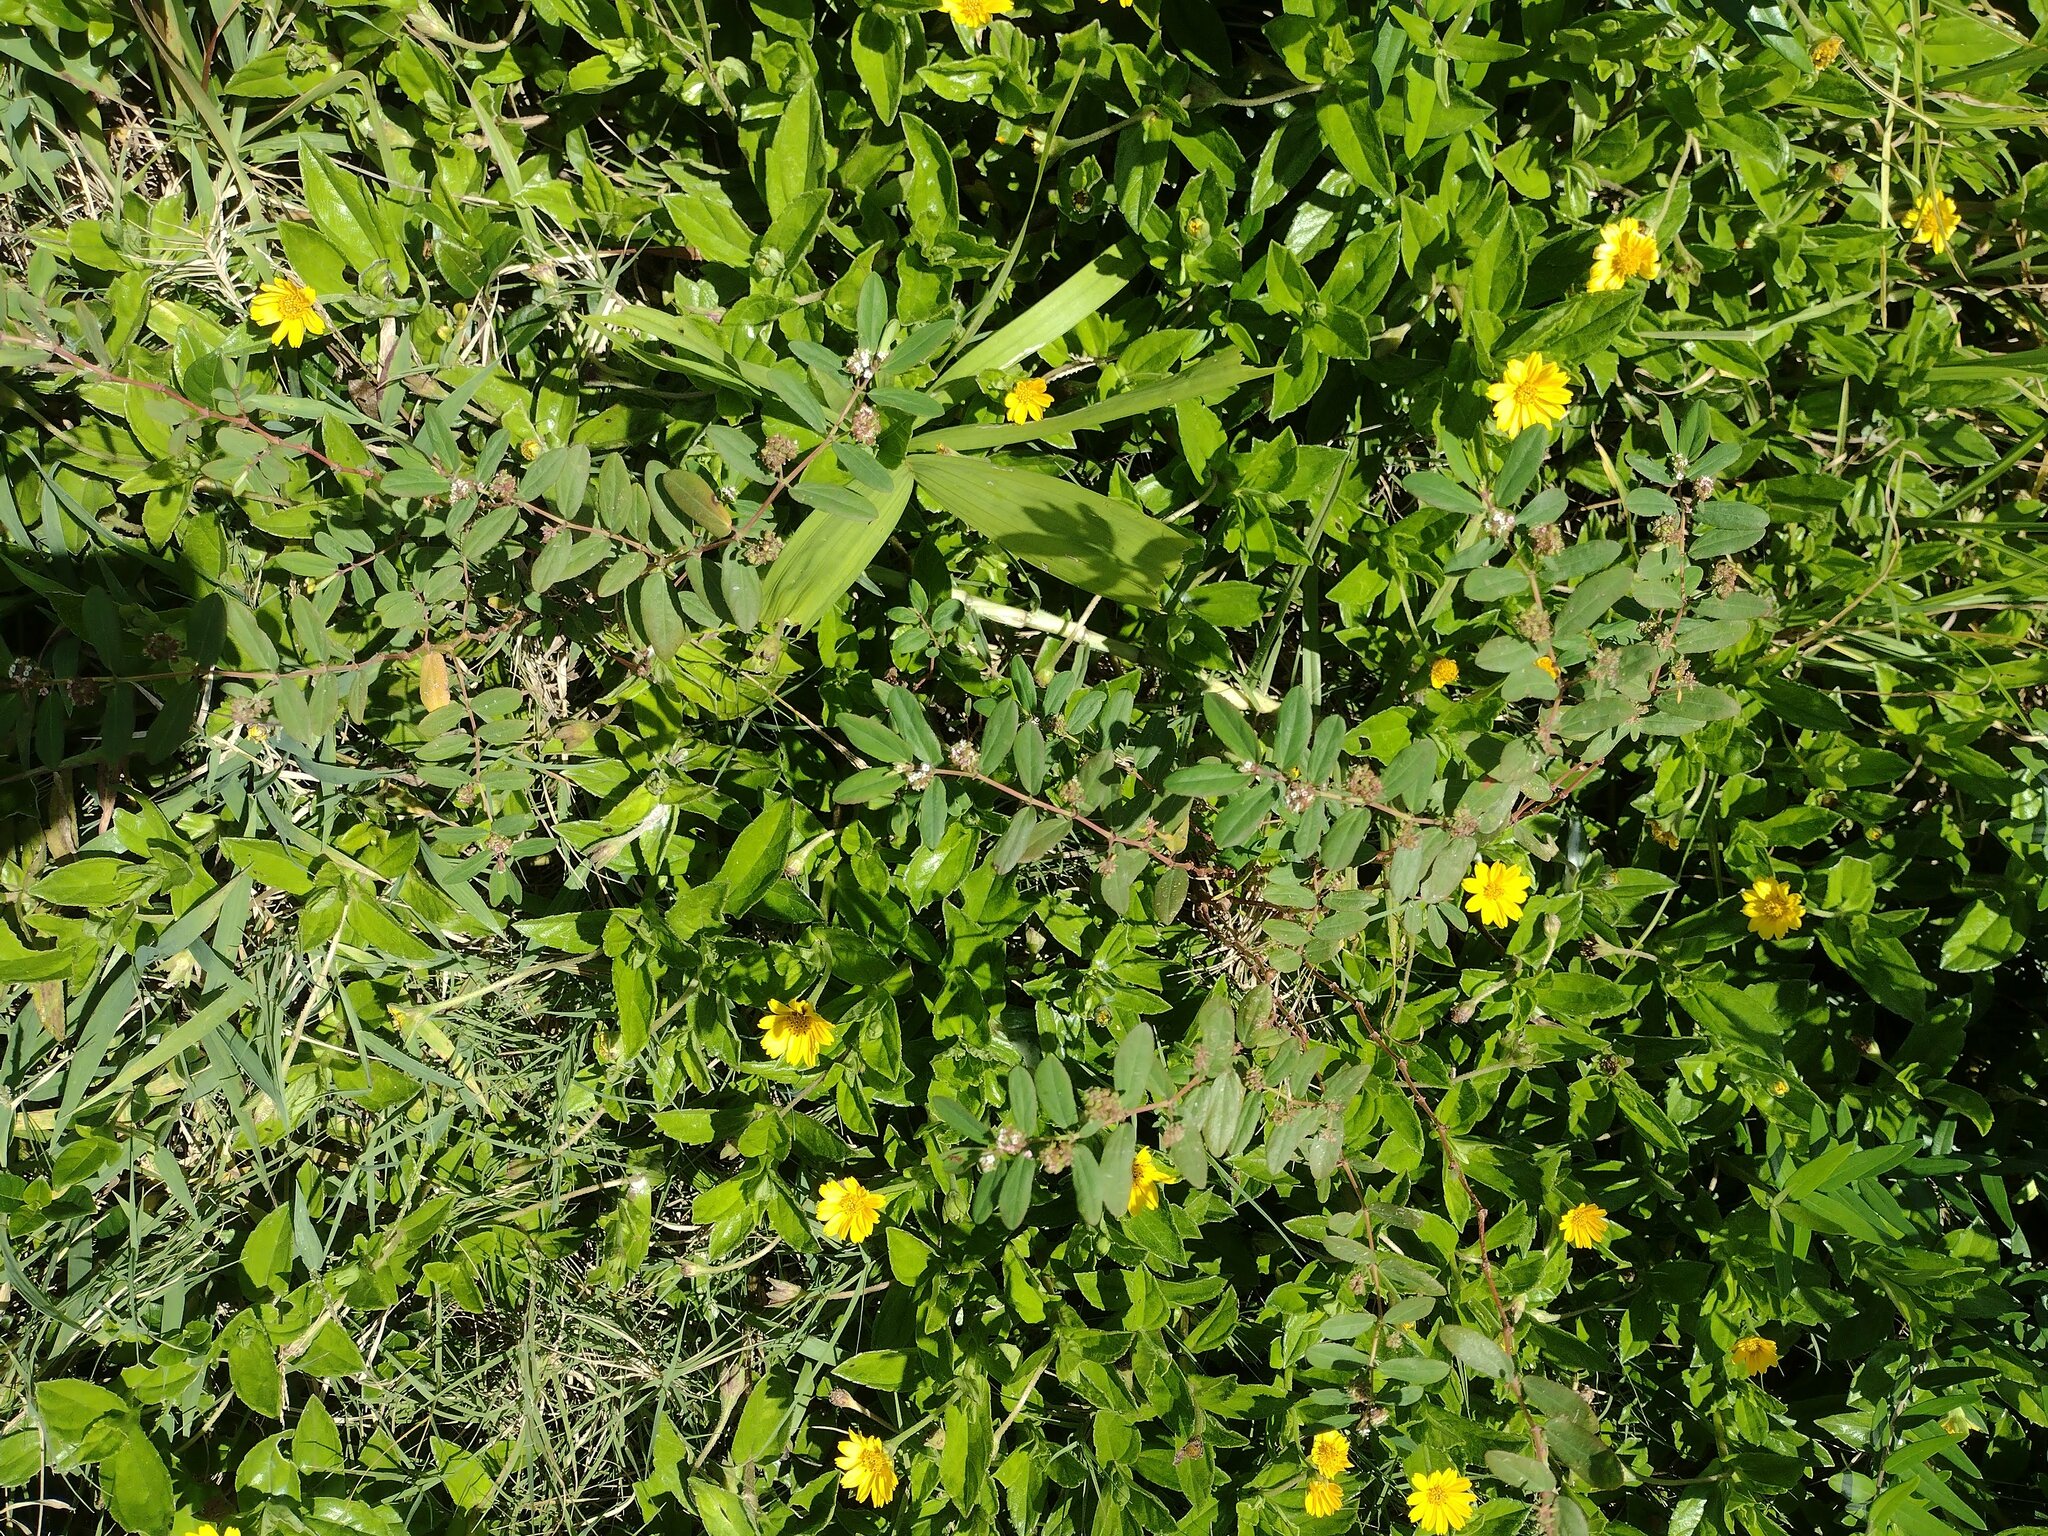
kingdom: Plantae
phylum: Tracheophyta
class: Magnoliopsida
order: Malpighiales
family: Euphorbiaceae
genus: Euphorbia
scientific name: Euphorbia hypericifolia
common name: Graceful sandmat
